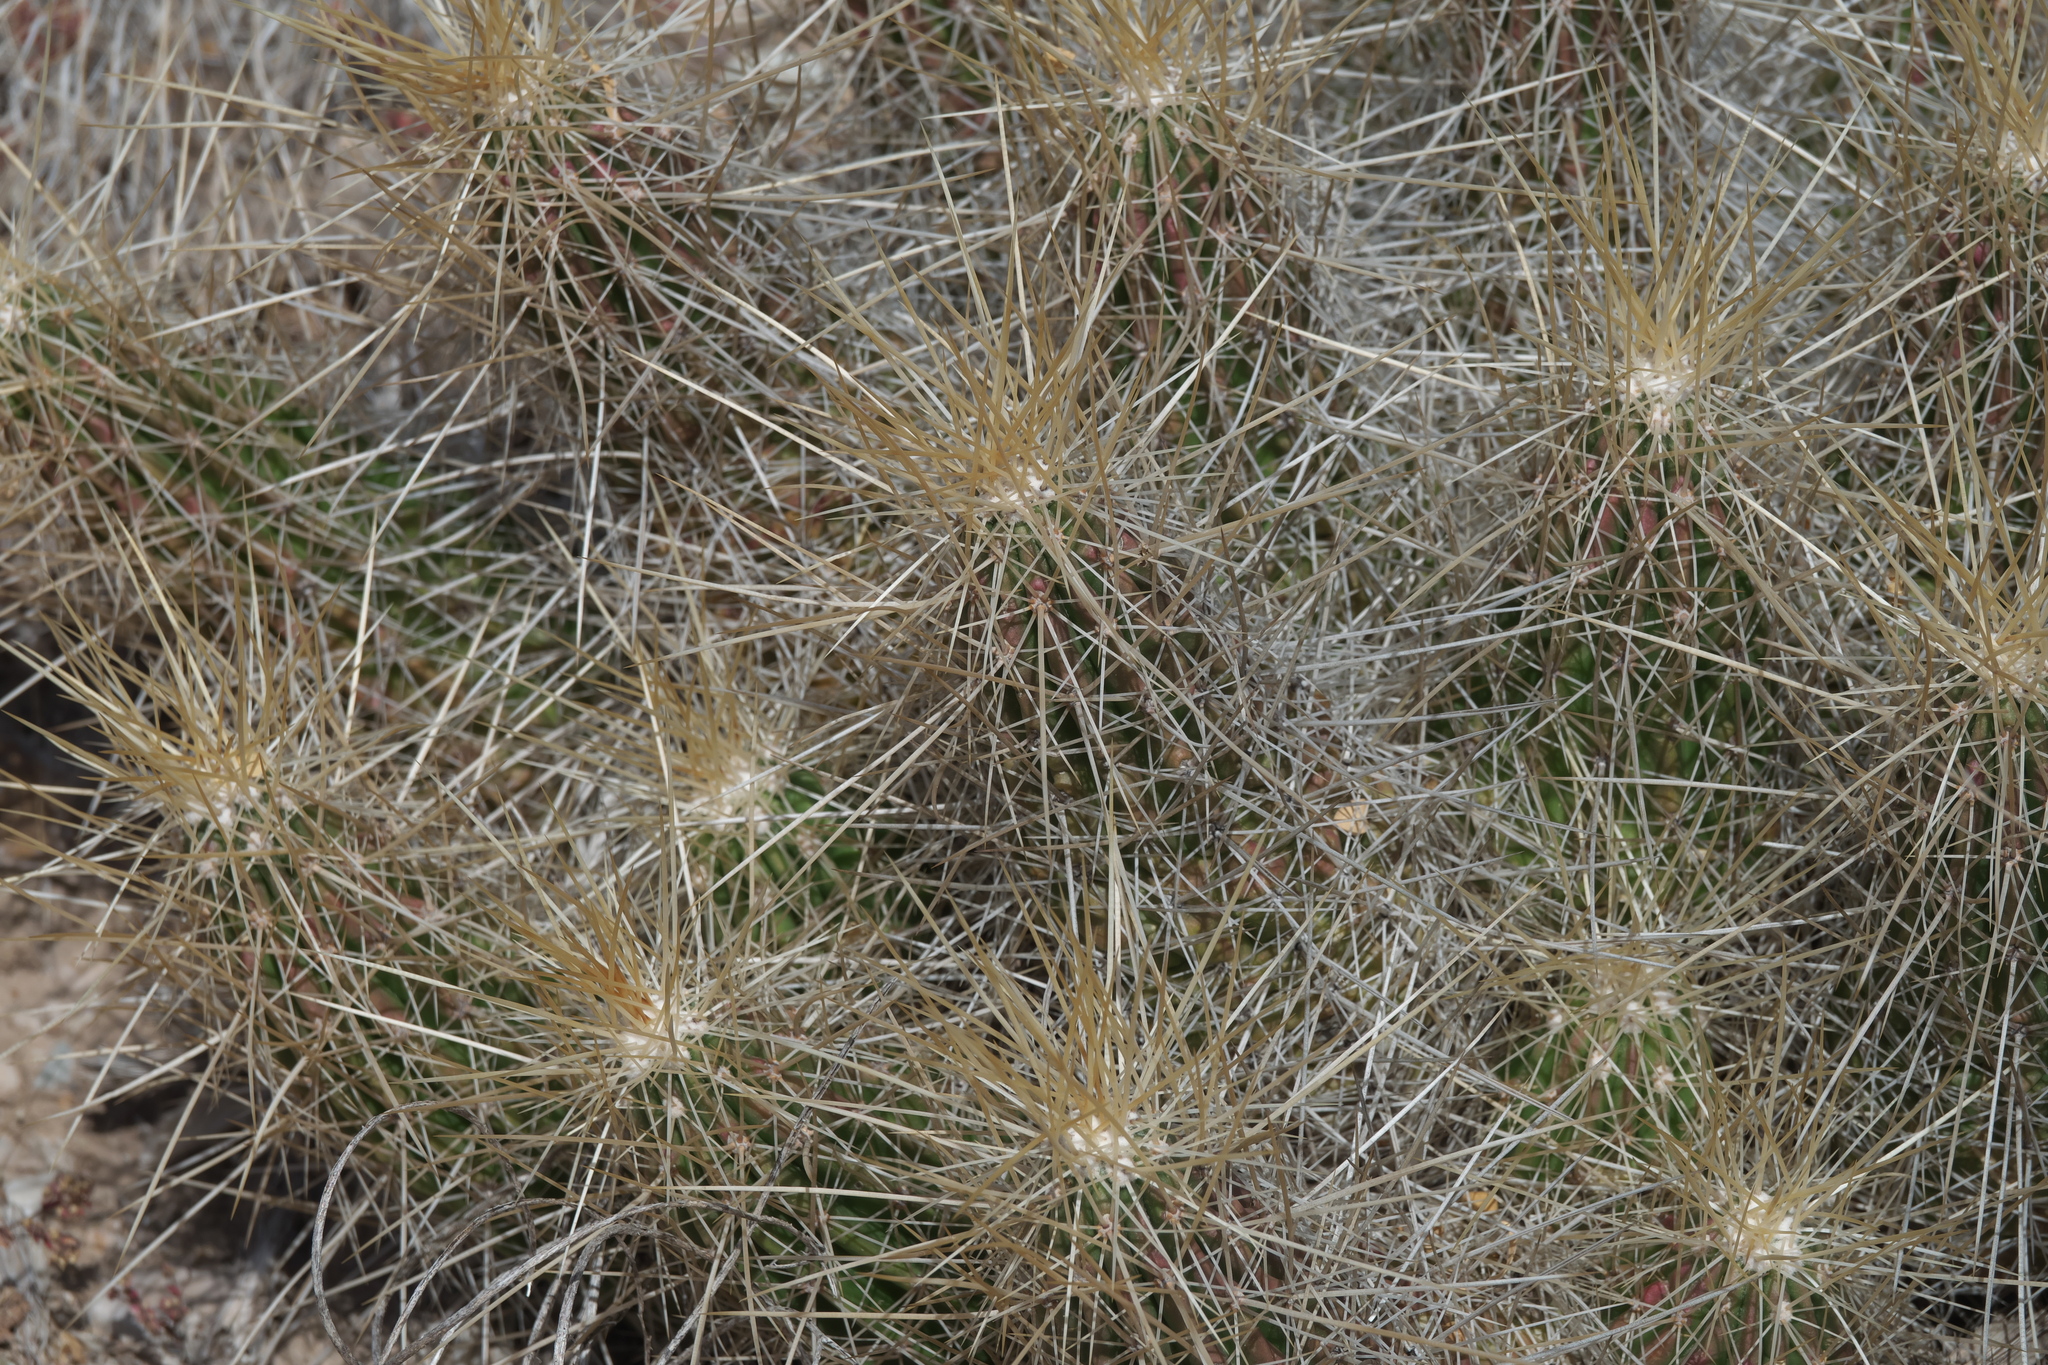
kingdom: Plantae
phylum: Tracheophyta
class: Magnoliopsida
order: Caryophyllales
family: Cactaceae
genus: Echinocereus
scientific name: Echinocereus stramineus
